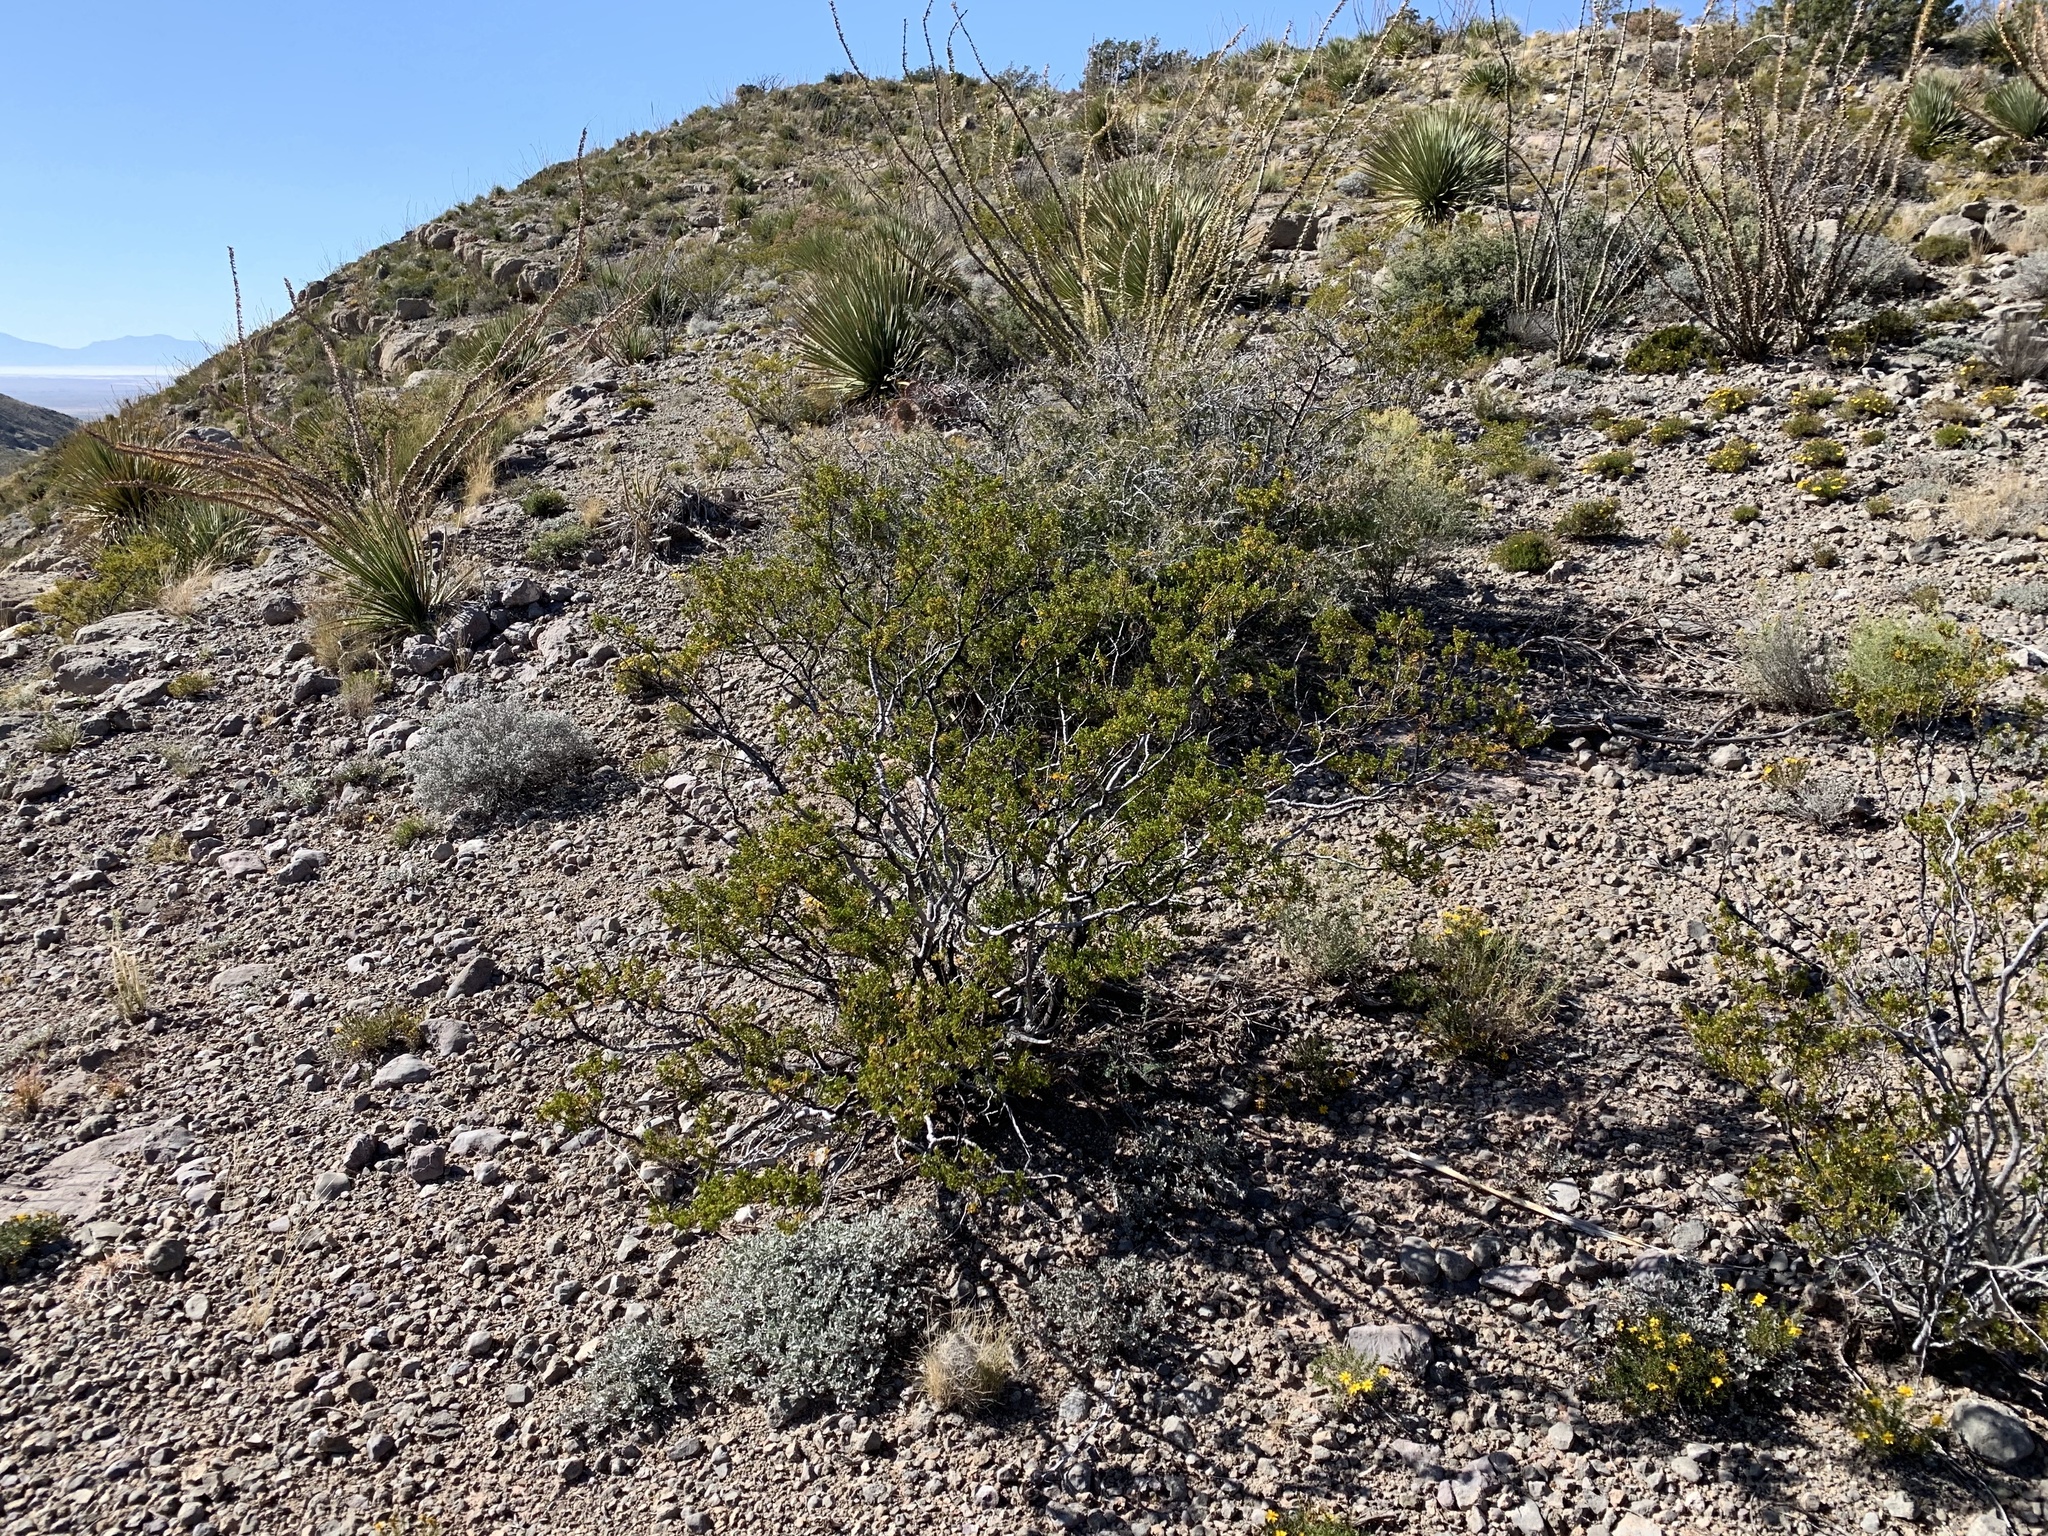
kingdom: Plantae
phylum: Tracheophyta
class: Magnoliopsida
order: Zygophyllales
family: Zygophyllaceae
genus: Larrea
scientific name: Larrea tridentata
